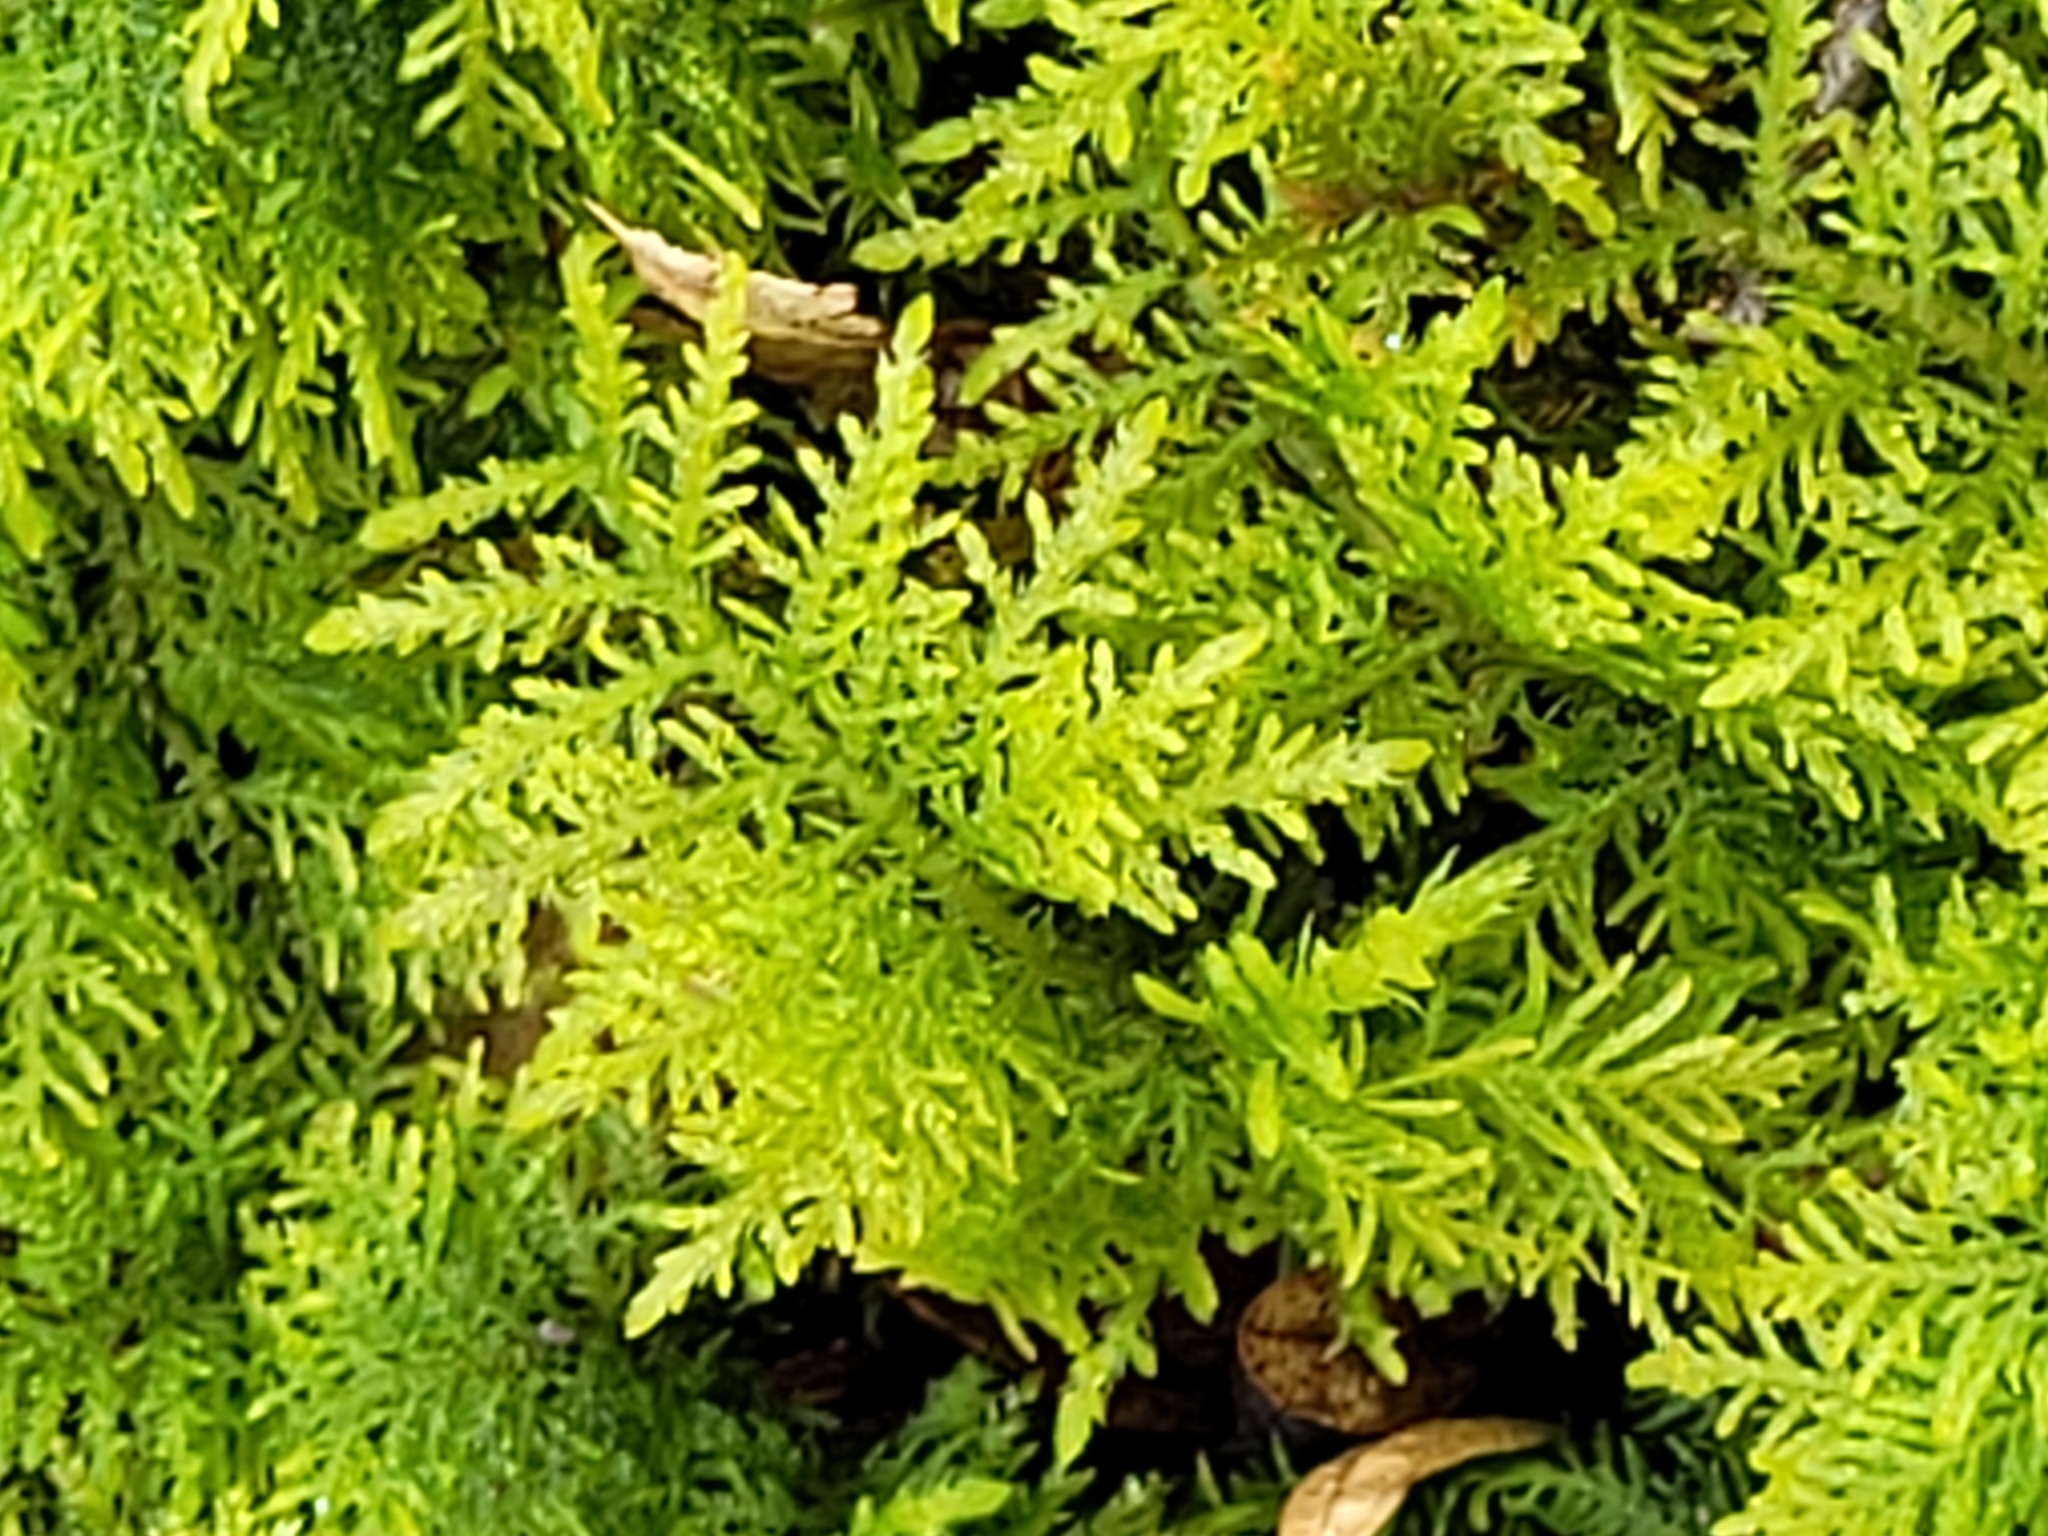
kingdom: Plantae
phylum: Bryophyta
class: Bryopsida
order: Hypnales
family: Thuidiaceae
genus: Thuidium
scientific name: Thuidium tamariscinum
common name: Common tamarisk-moss
